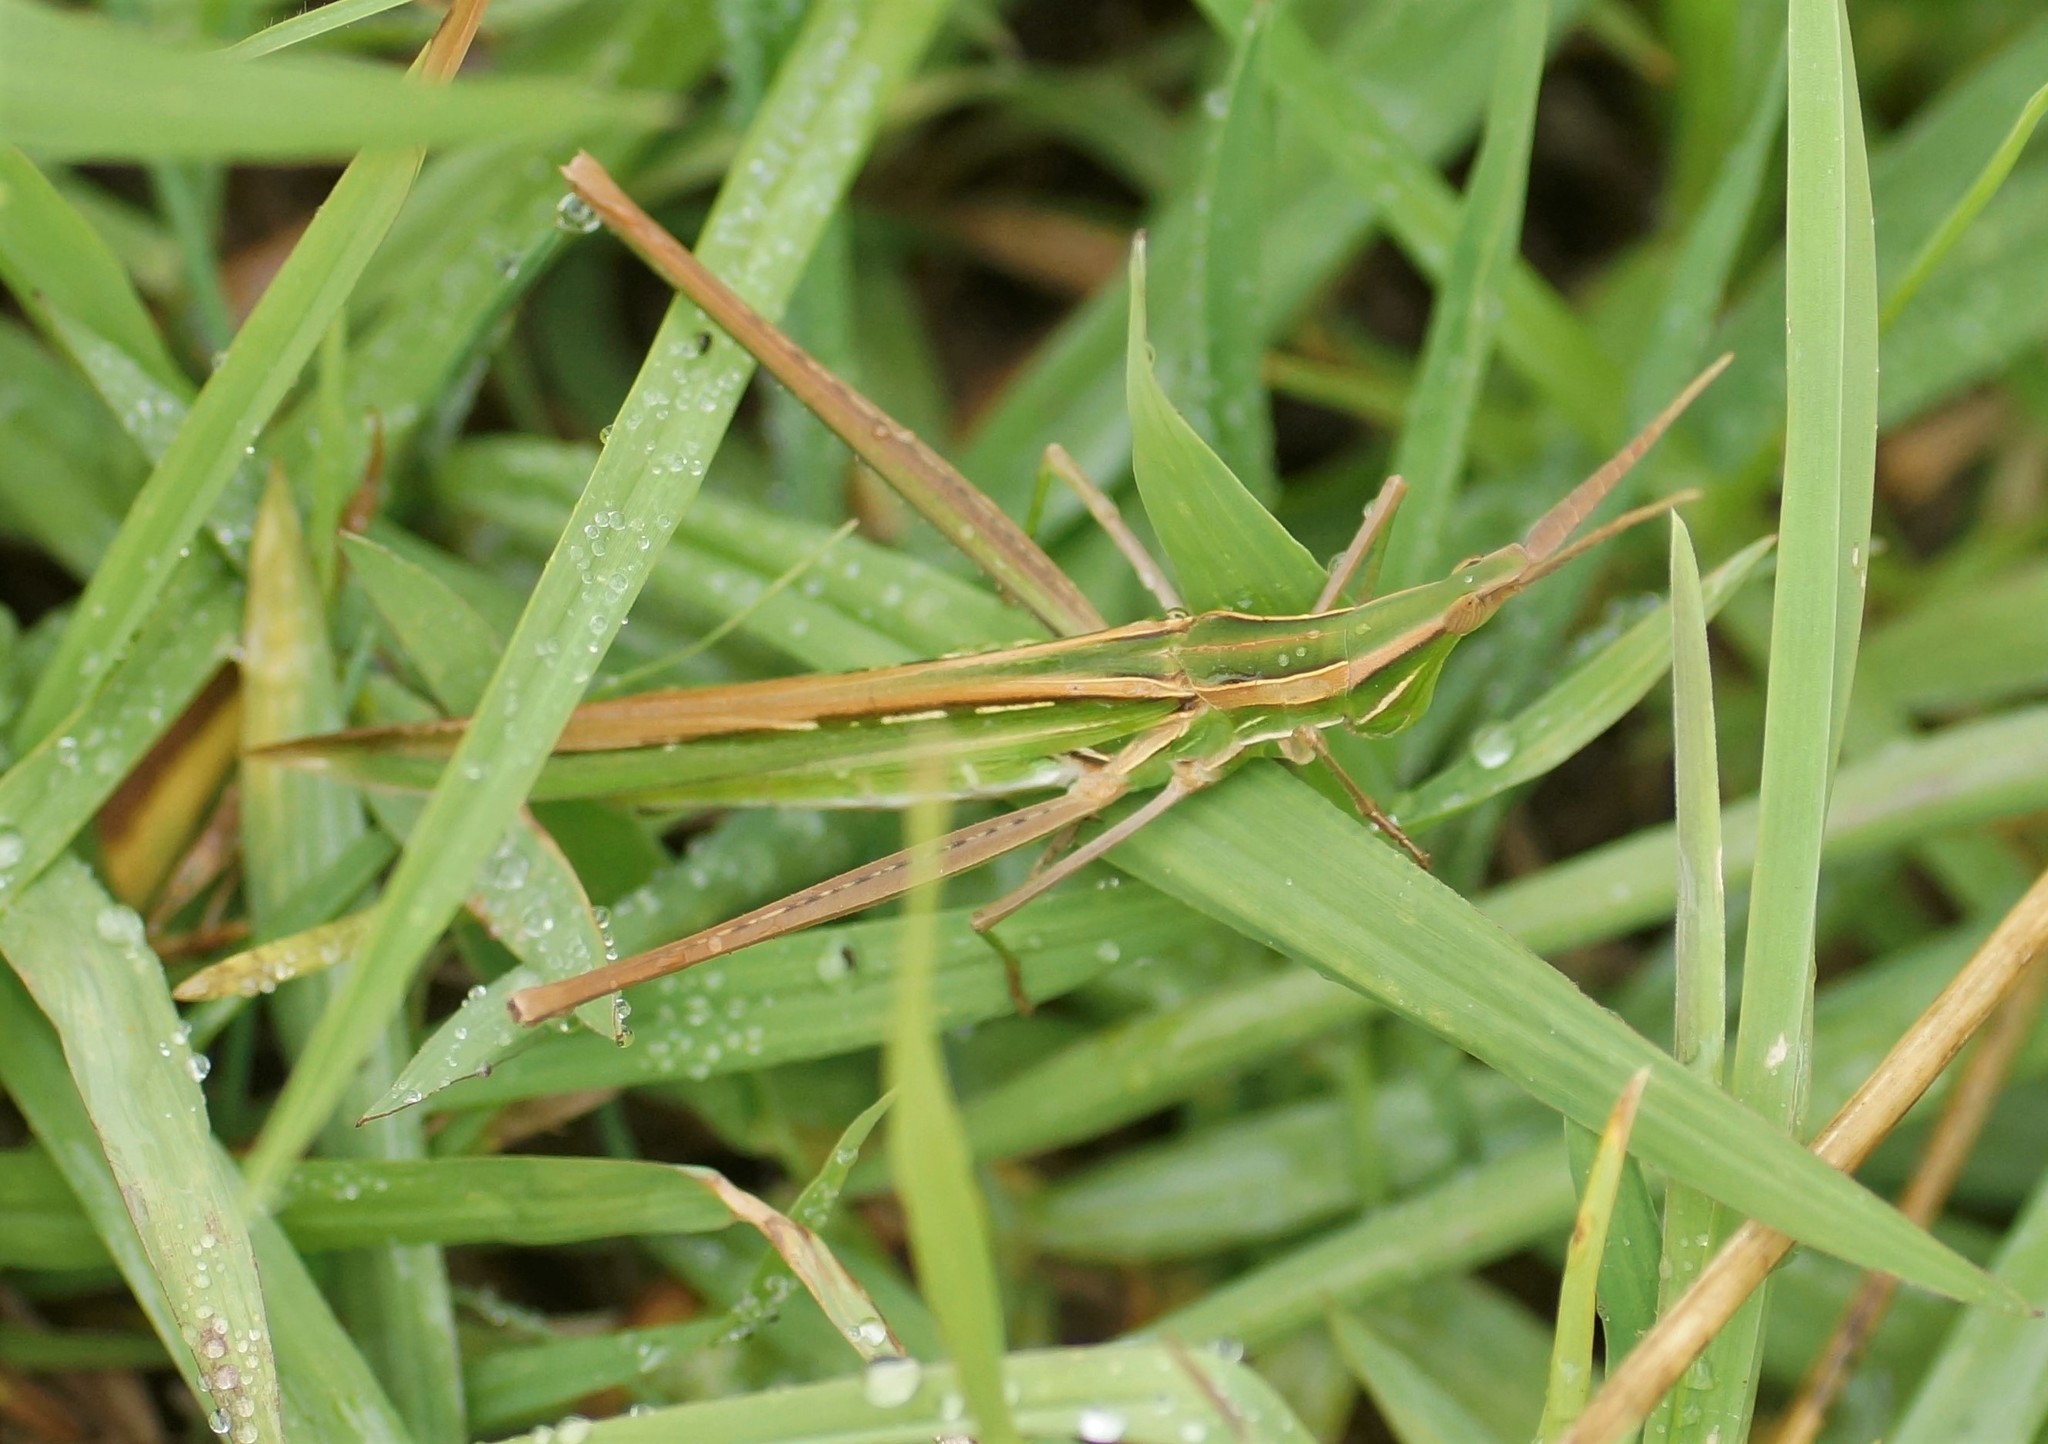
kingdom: Animalia
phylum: Arthropoda
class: Insecta
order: Orthoptera
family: Acrididae
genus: Acrida
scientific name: Acrida conica
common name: Giant green slantface
